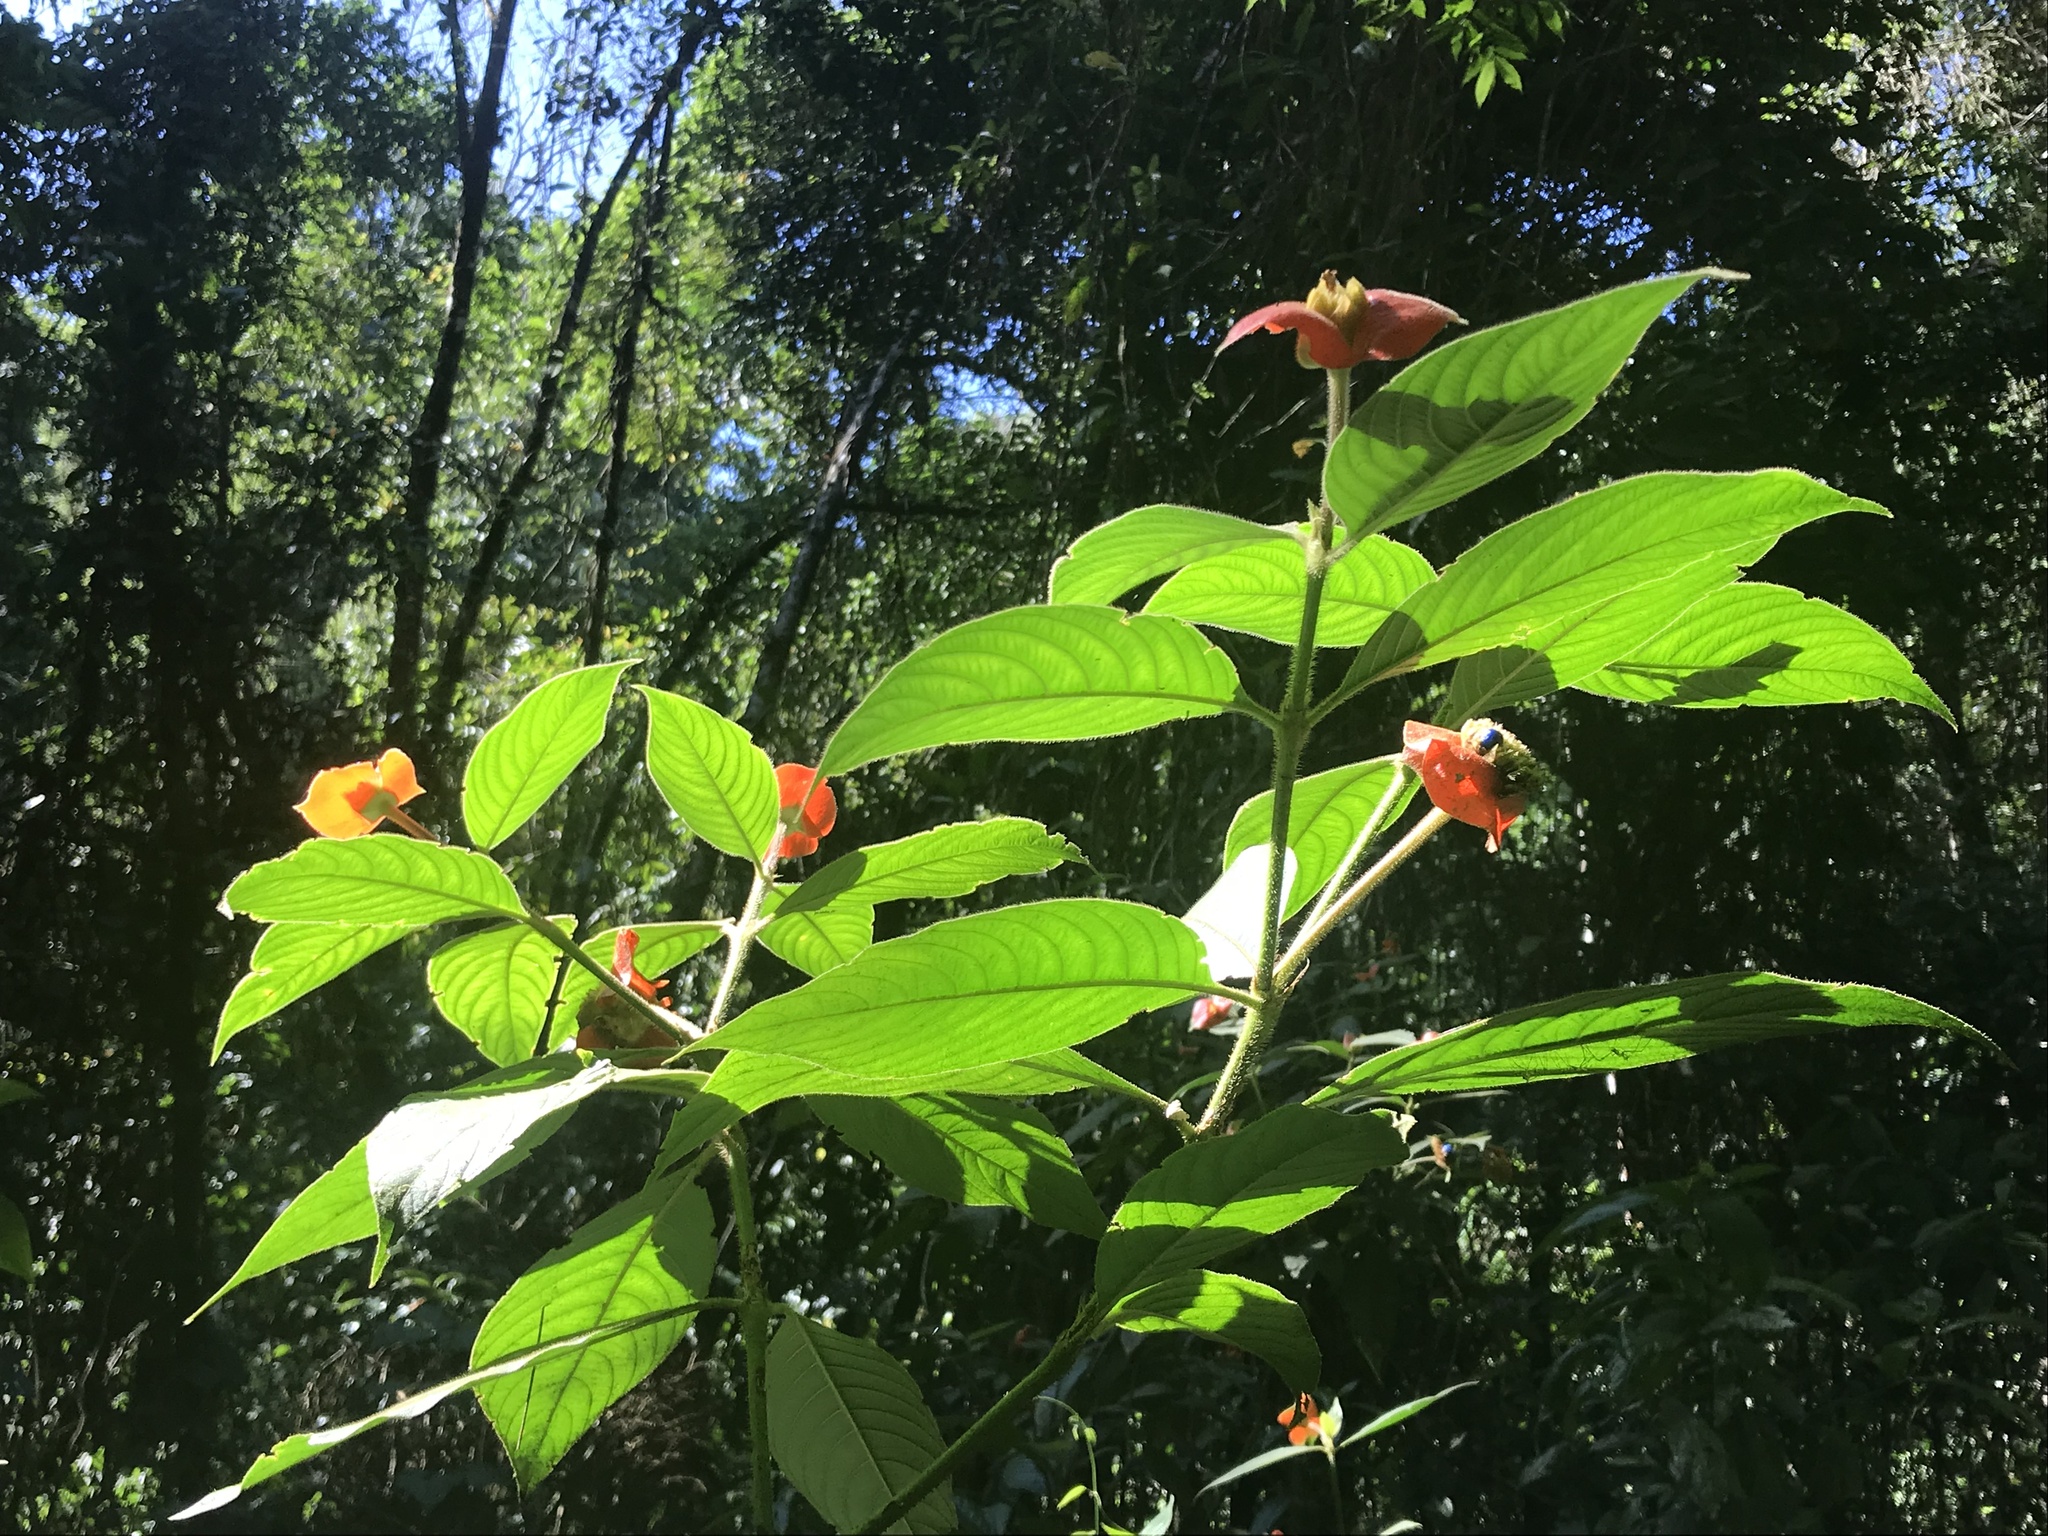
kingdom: Plantae
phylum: Tracheophyta
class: Magnoliopsida
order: Gentianales
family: Rubiaceae
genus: Palicourea
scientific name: Palicourea tomentosa
